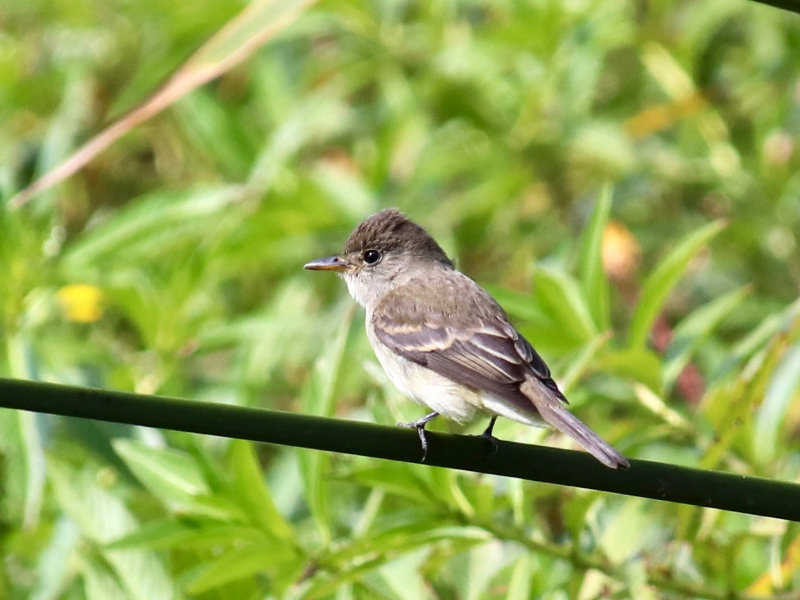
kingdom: Animalia
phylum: Chordata
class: Aves
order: Passeriformes
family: Tyrannidae
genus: Empidonax
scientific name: Empidonax traillii
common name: Willow flycatcher
